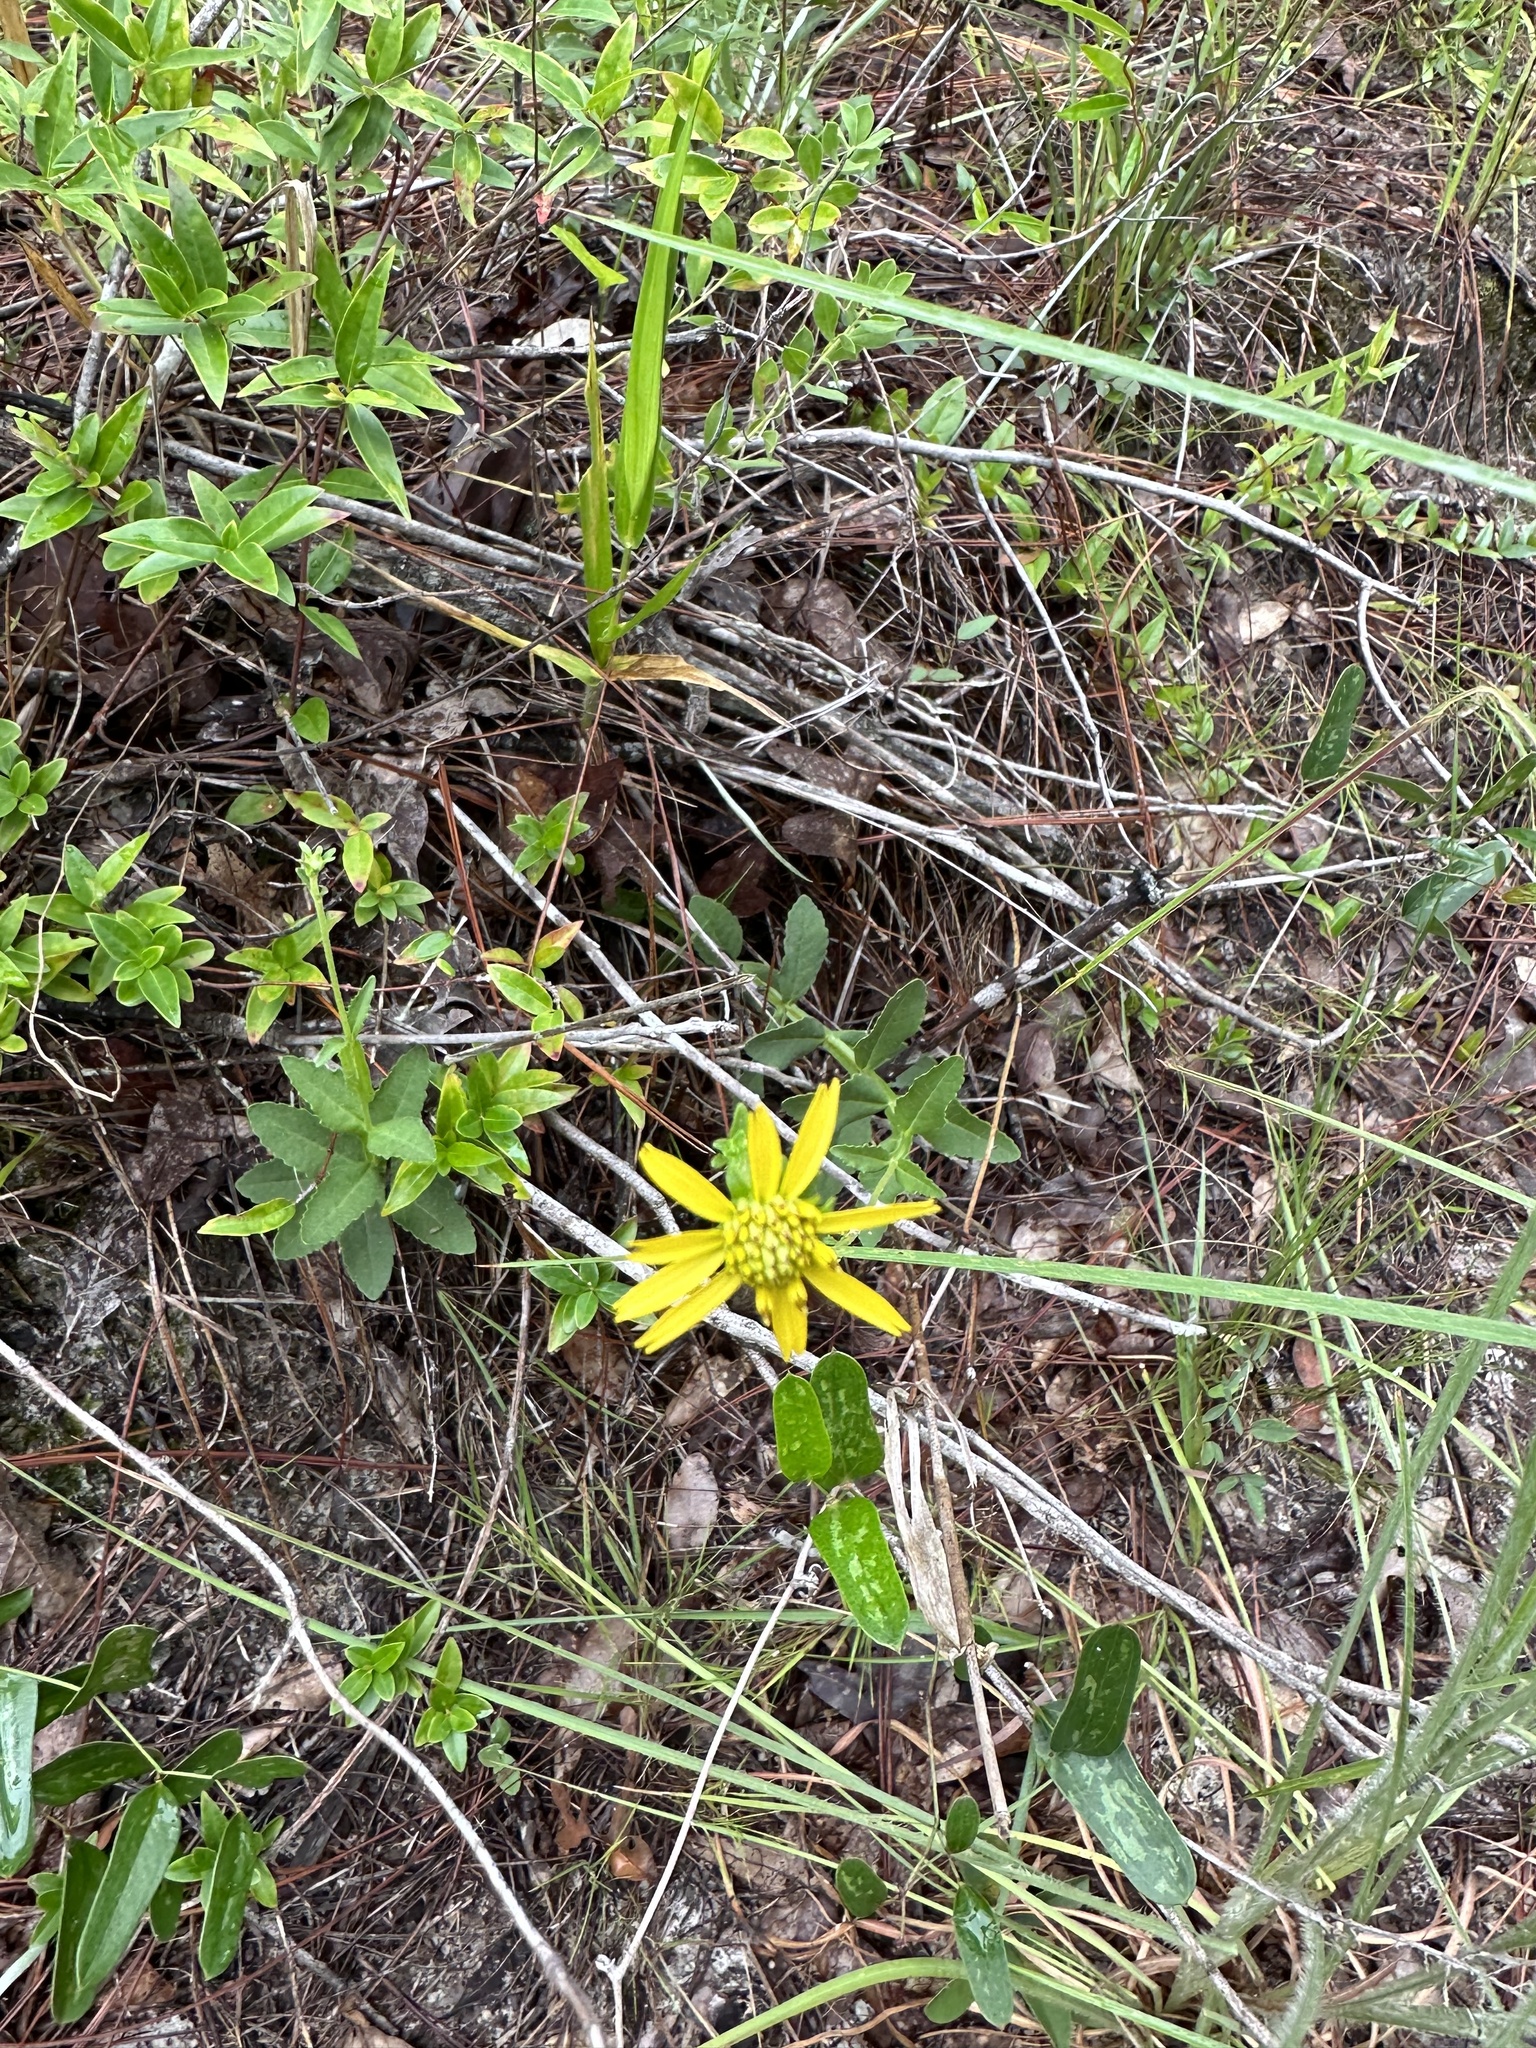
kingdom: Plantae
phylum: Tracheophyta
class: Magnoliopsida
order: Asterales
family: Asteraceae
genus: Verbesina
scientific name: Verbesina heterophylla
